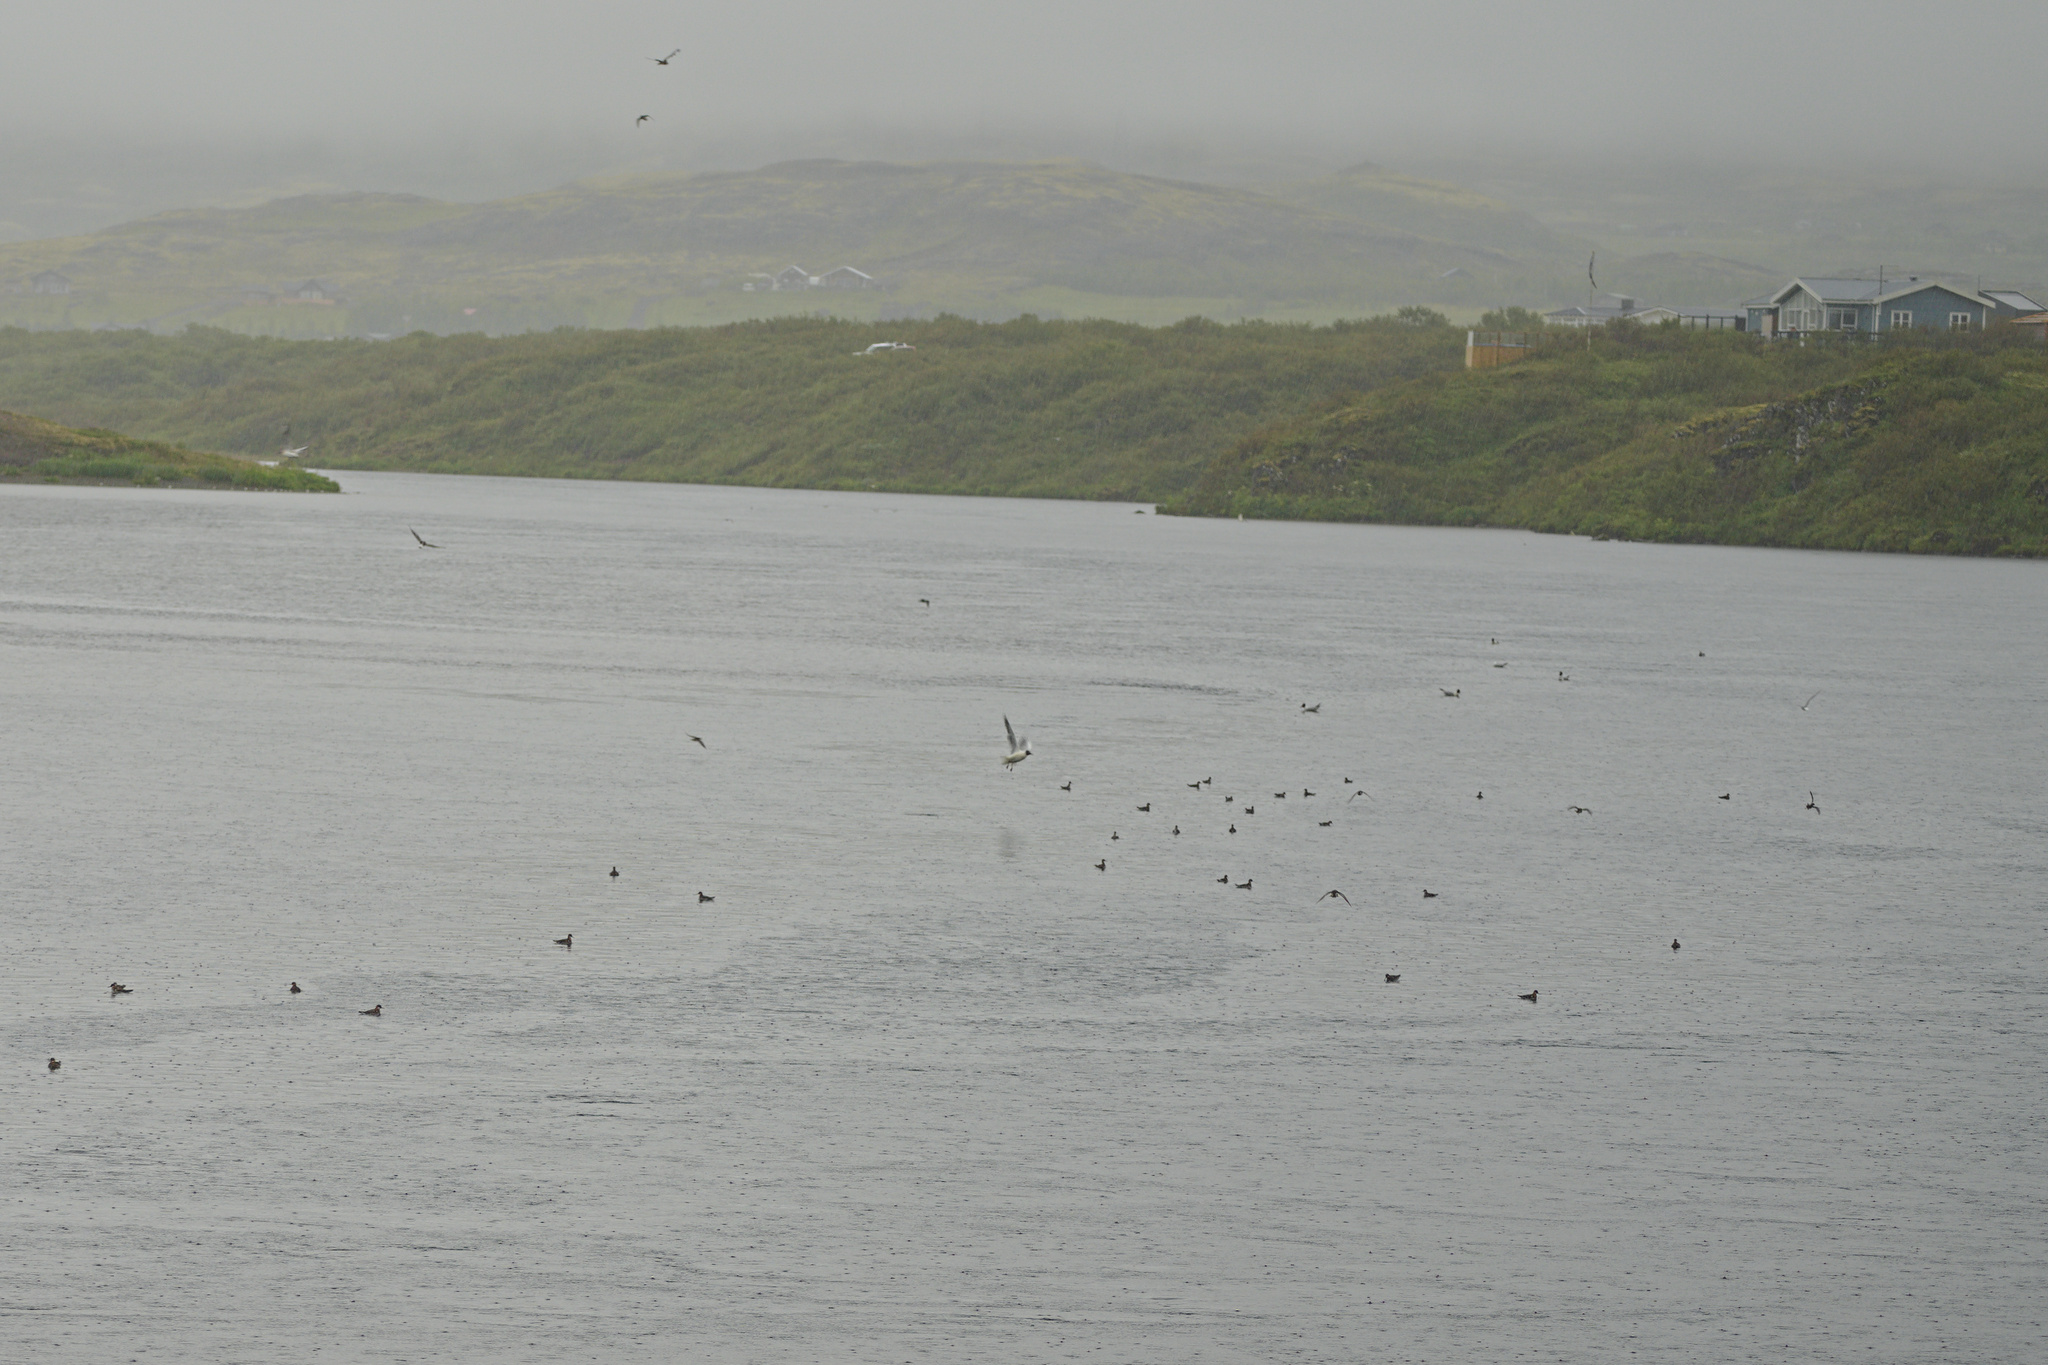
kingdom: Animalia
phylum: Chordata
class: Aves
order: Charadriiformes
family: Scolopacidae
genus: Phalaropus
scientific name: Phalaropus lobatus
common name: Red-necked phalarope
